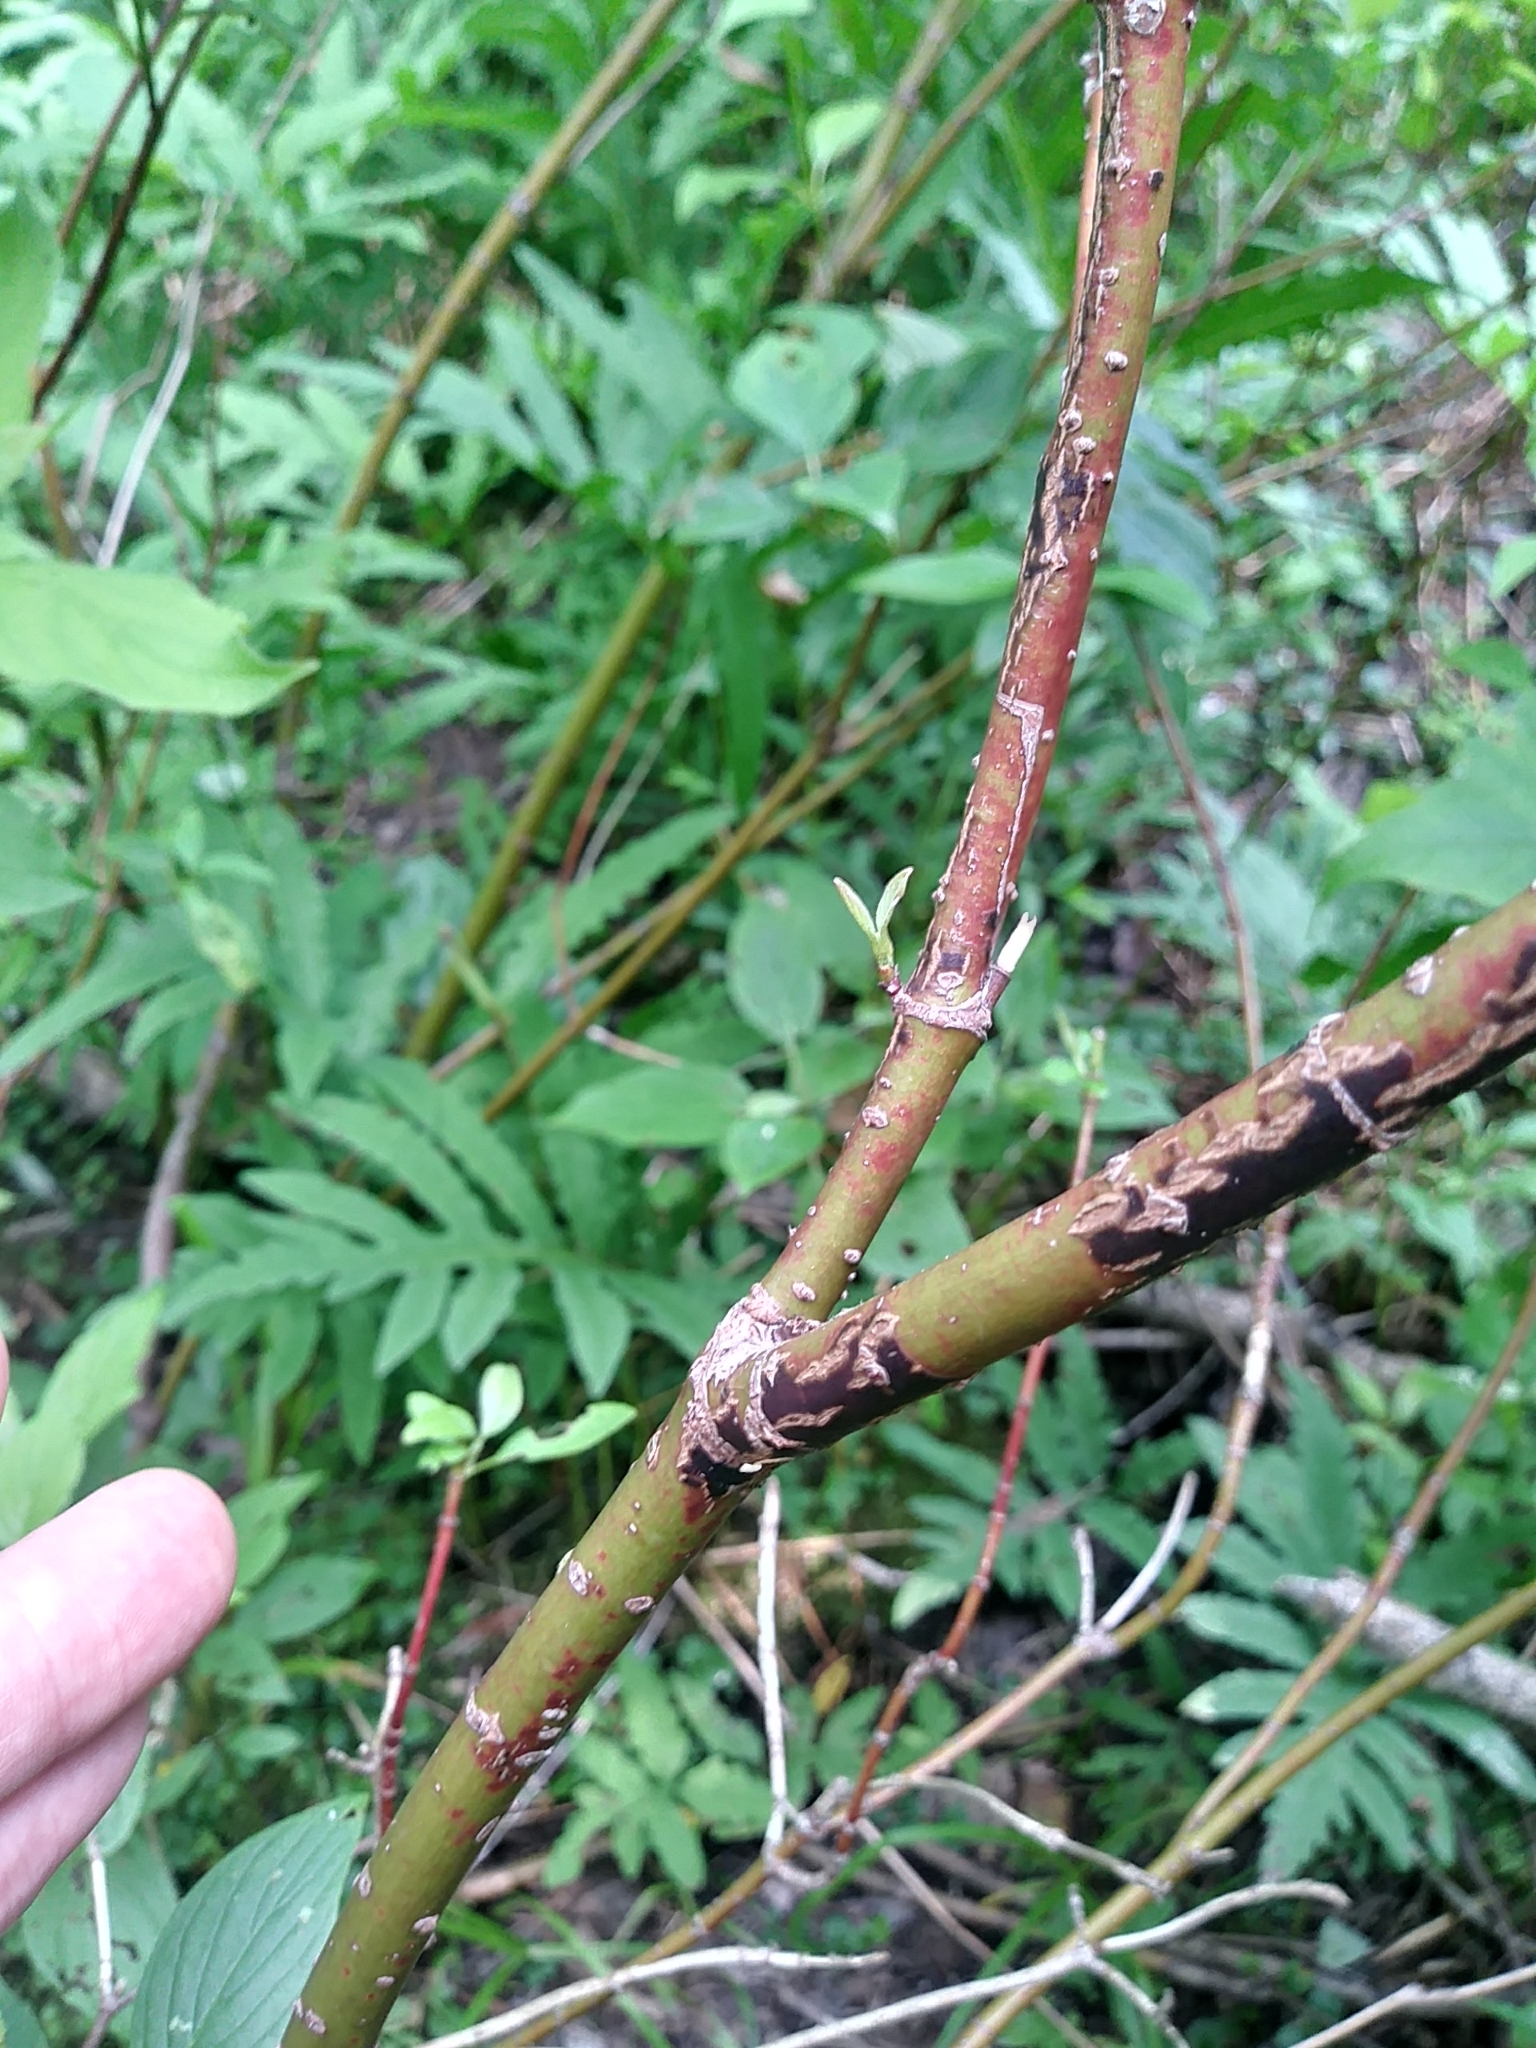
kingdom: Plantae
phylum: Tracheophyta
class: Magnoliopsida
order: Cornales
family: Cornaceae
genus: Cornus
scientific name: Cornus sericea
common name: Red-osier dogwood
